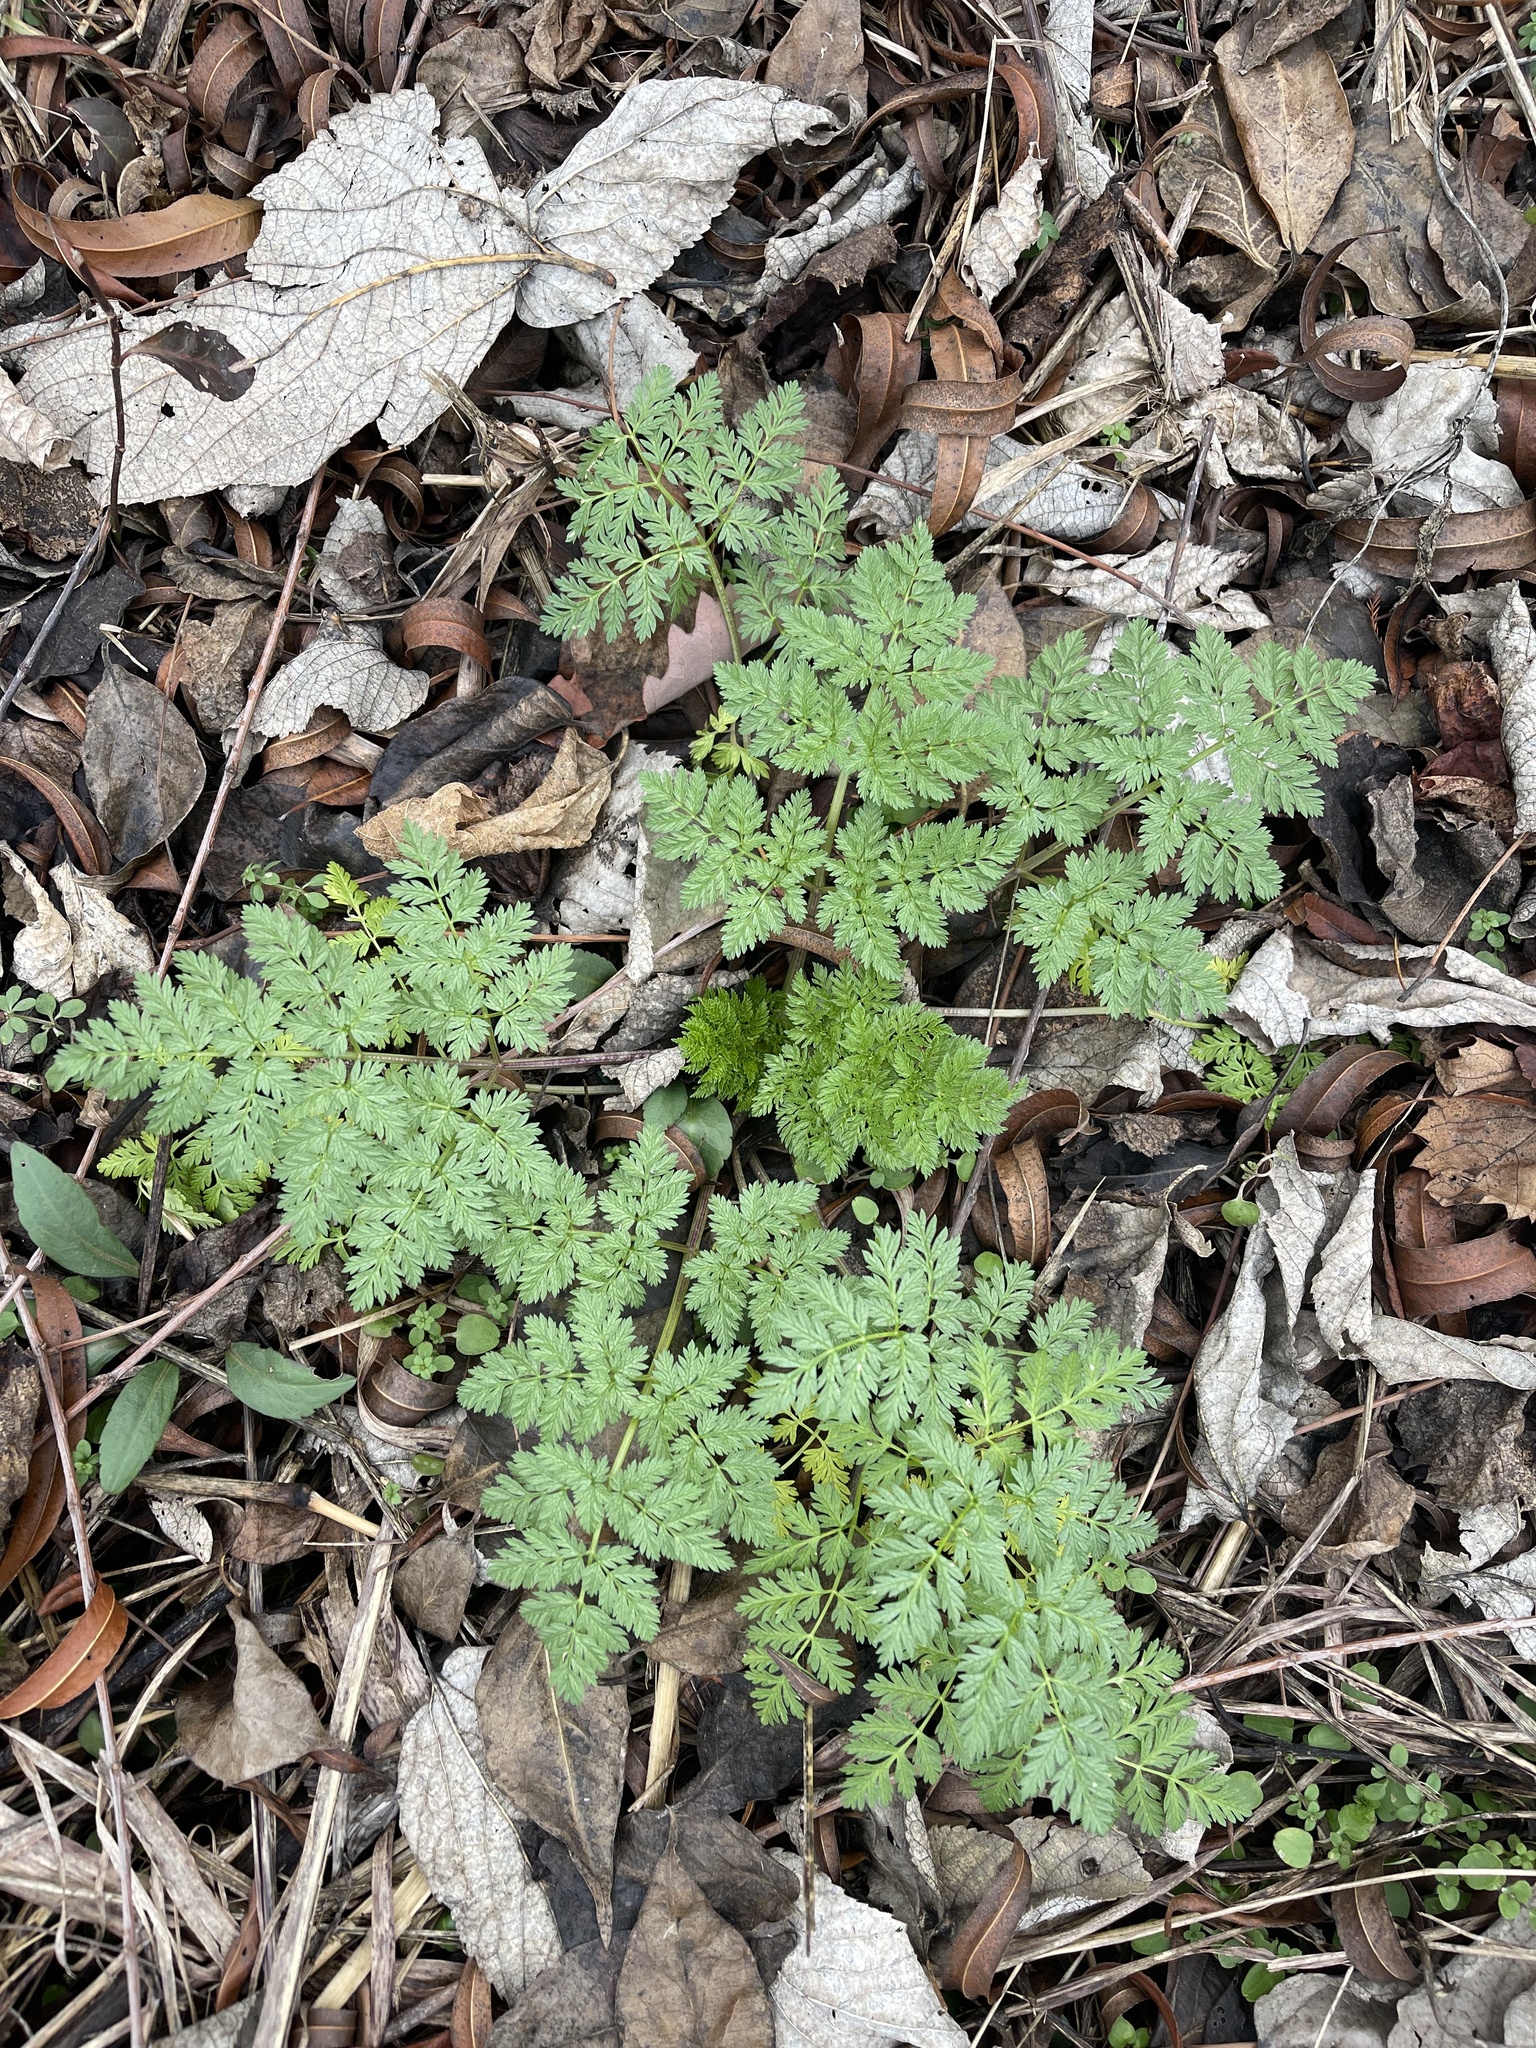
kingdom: Plantae
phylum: Tracheophyta
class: Magnoliopsida
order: Apiales
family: Apiaceae
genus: Conium
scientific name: Conium maculatum
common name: Hemlock
